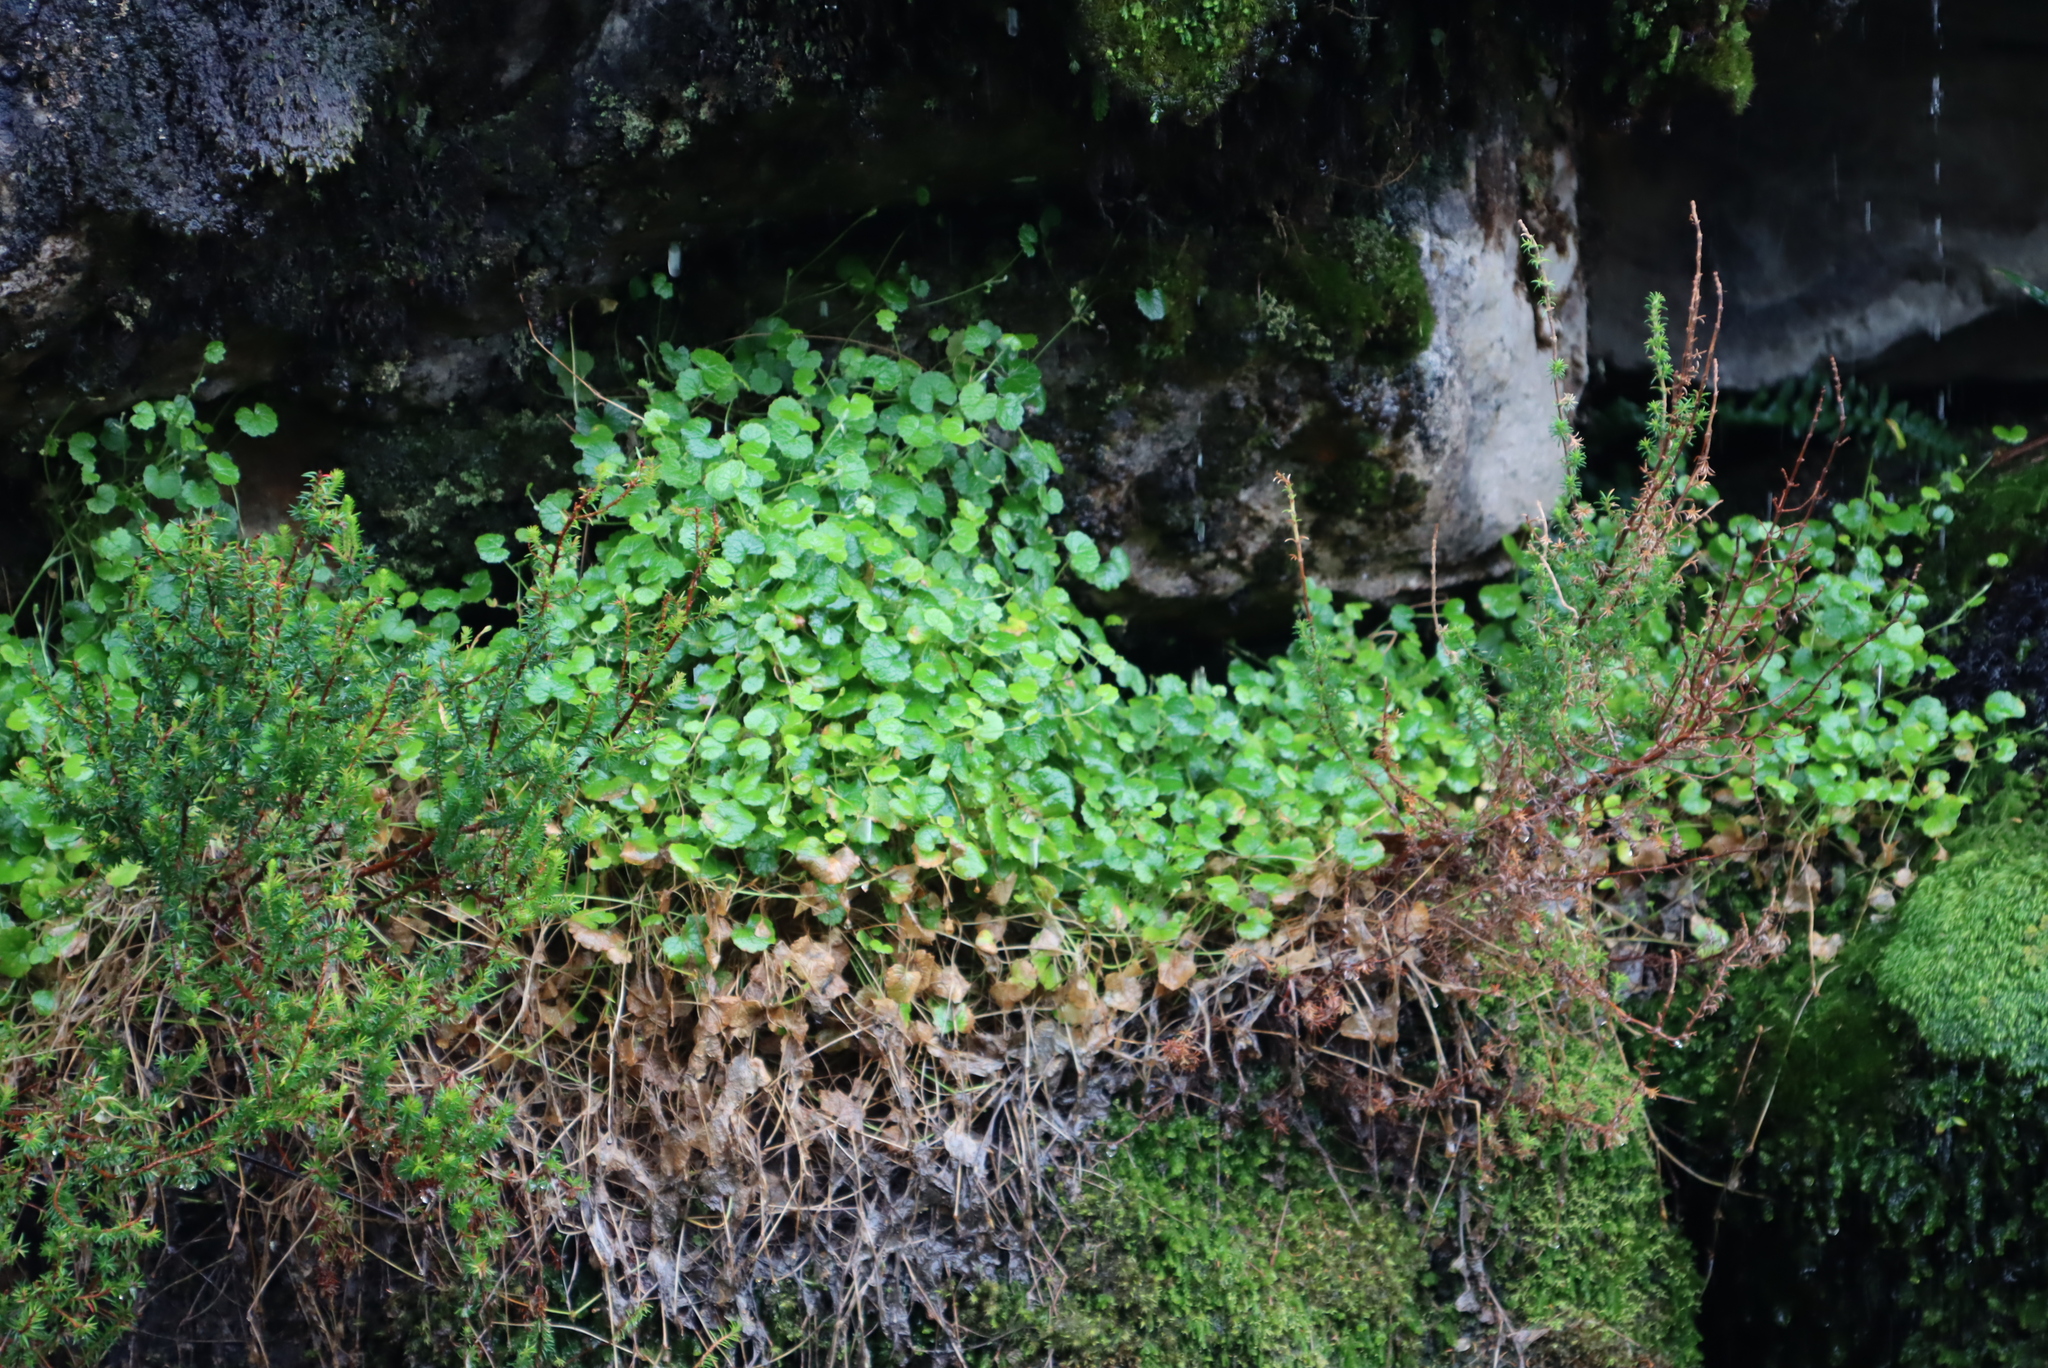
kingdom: Plantae
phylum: Tracheophyta
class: Magnoliopsida
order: Apiales
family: Apiaceae
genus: Centella
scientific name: Centella eriantha
